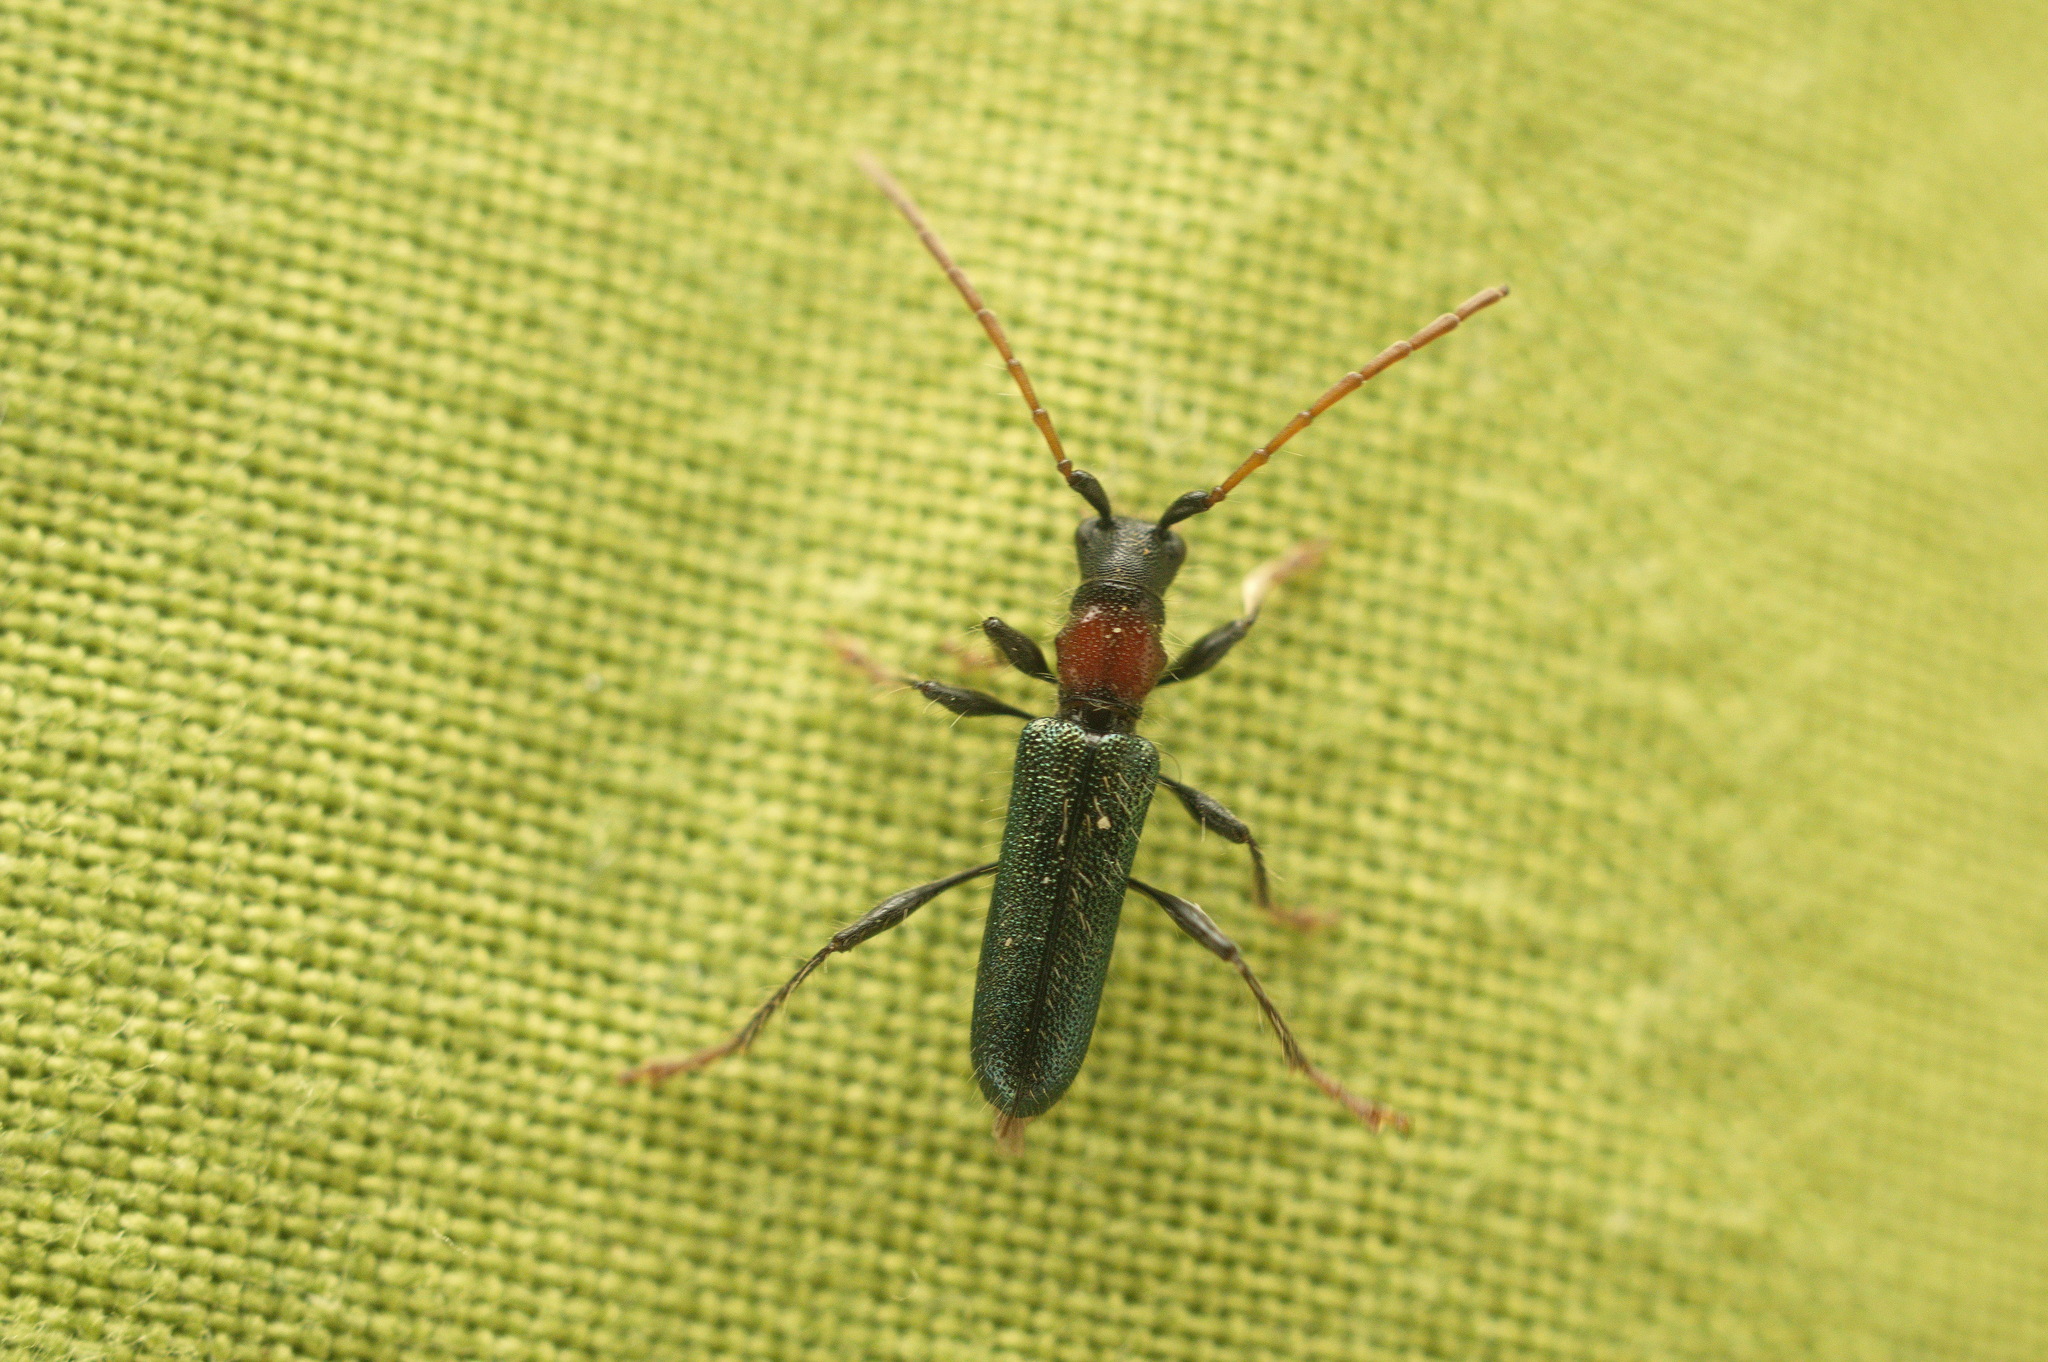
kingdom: Animalia
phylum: Arthropoda
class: Insecta
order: Coleoptera
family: Cerambycidae
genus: Certallum
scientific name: Certallum ebulinum
